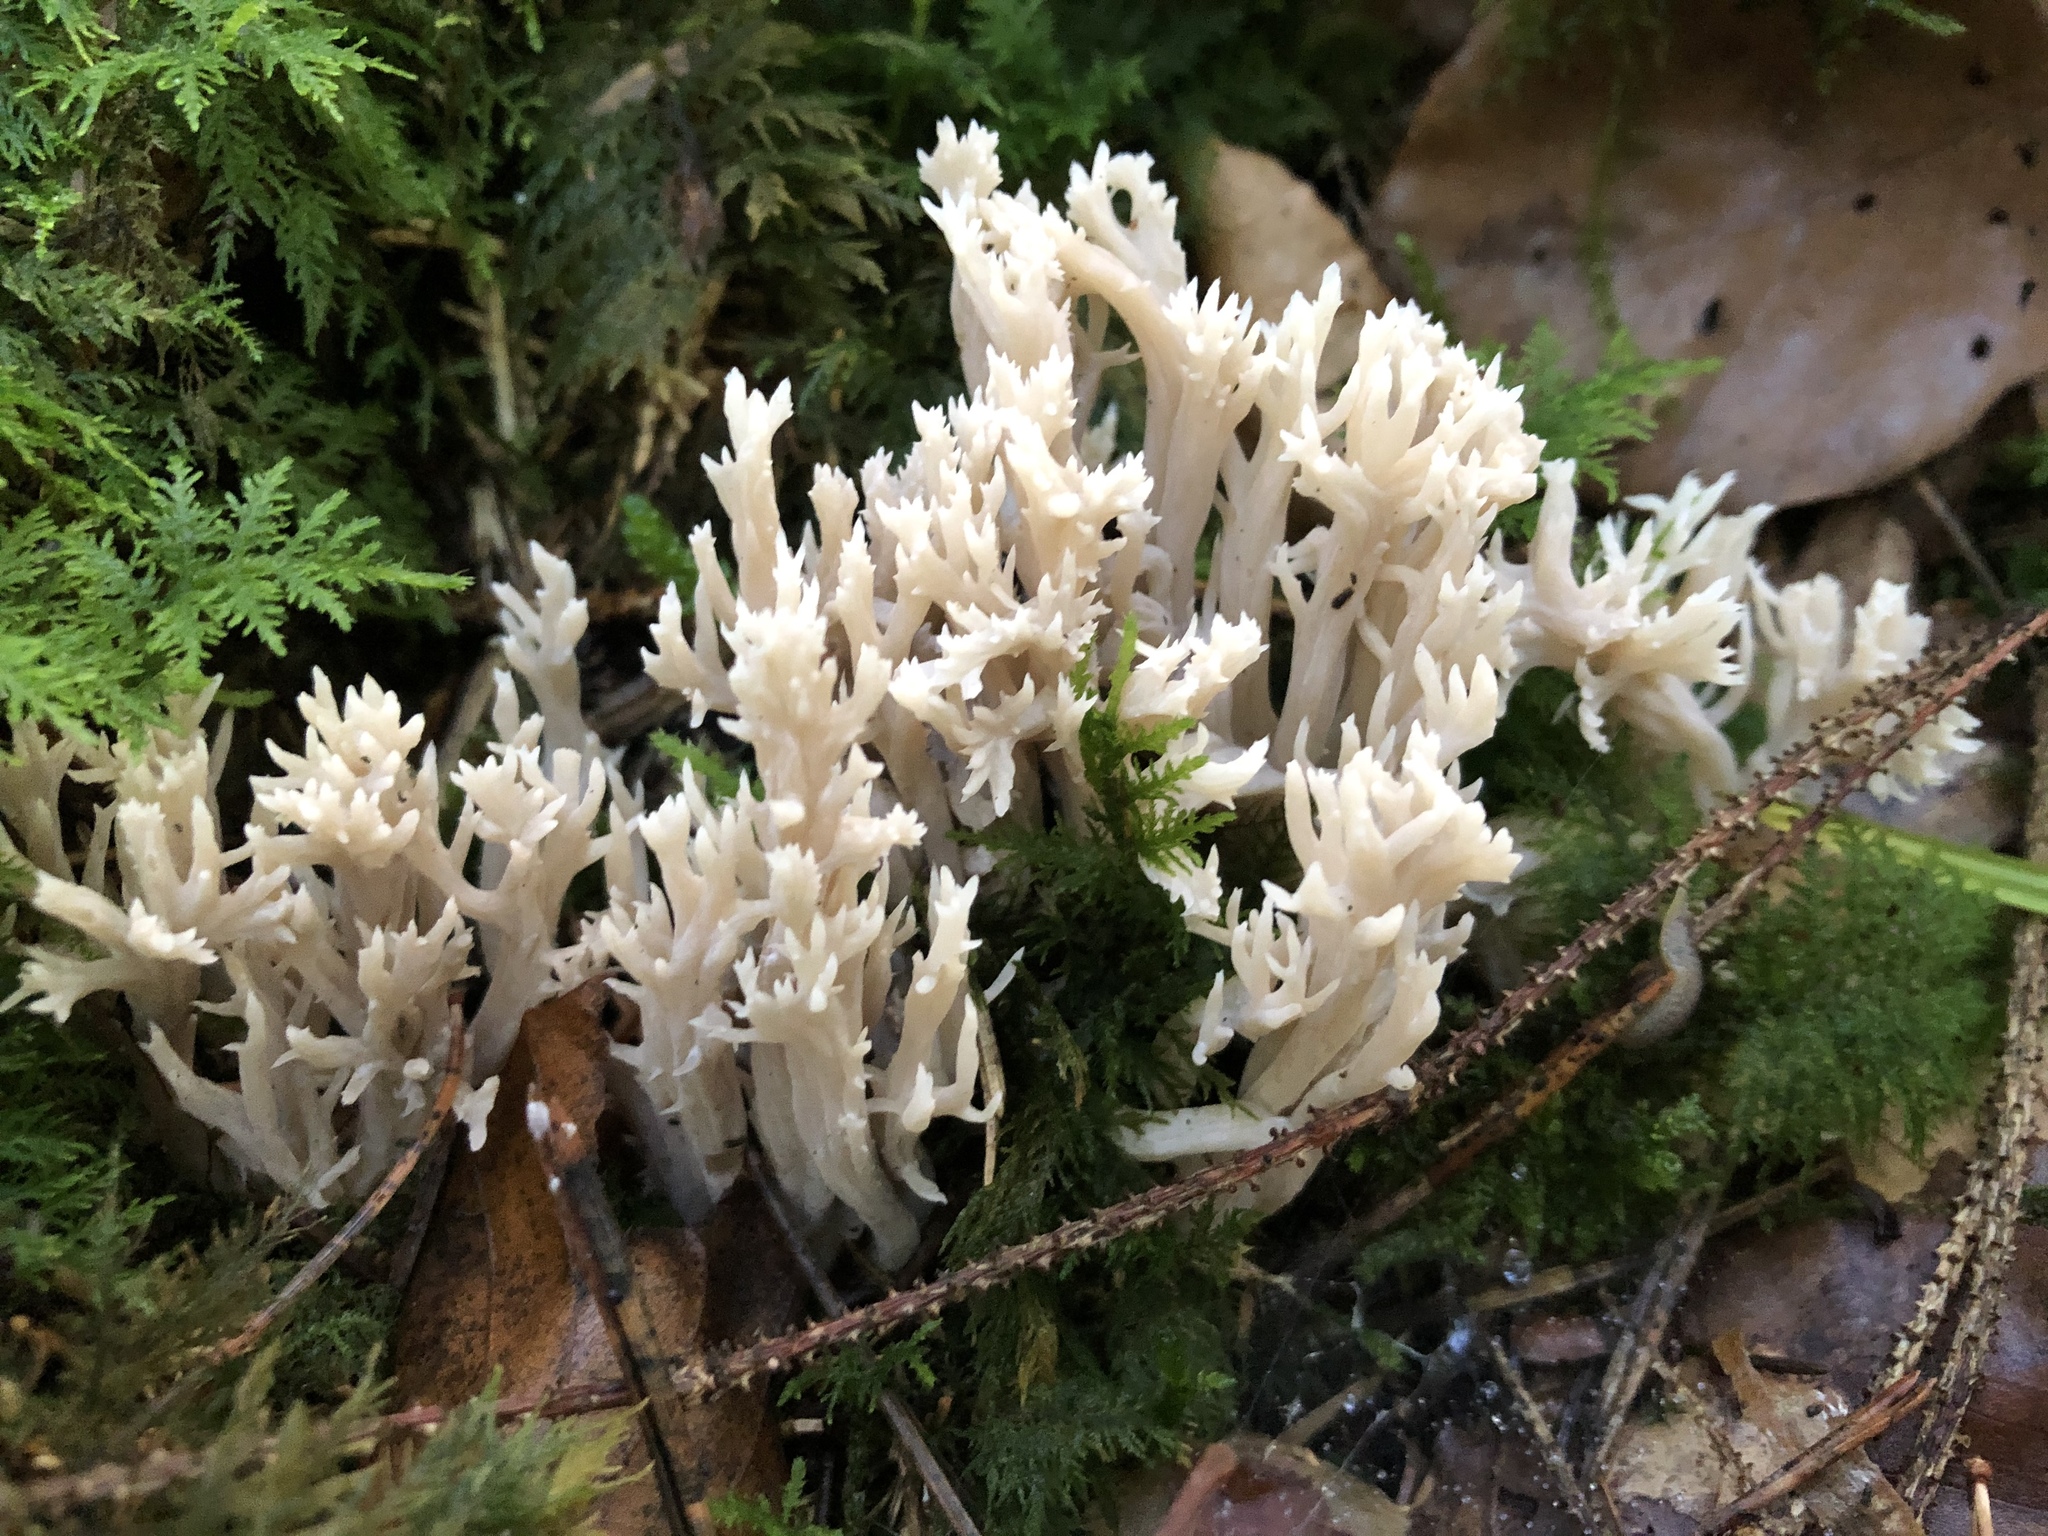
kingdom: Fungi
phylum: Basidiomycota
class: Agaricomycetes
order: Cantharellales
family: Hydnaceae
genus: Clavulina
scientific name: Clavulina coralloides
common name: Crested coral
